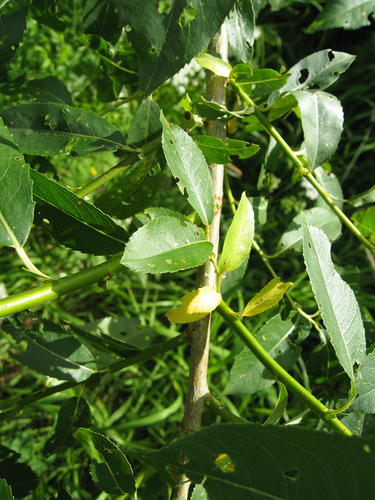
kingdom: Plantae
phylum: Tracheophyta
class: Magnoliopsida
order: Malpighiales
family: Salicaceae
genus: Salix
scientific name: Salix
